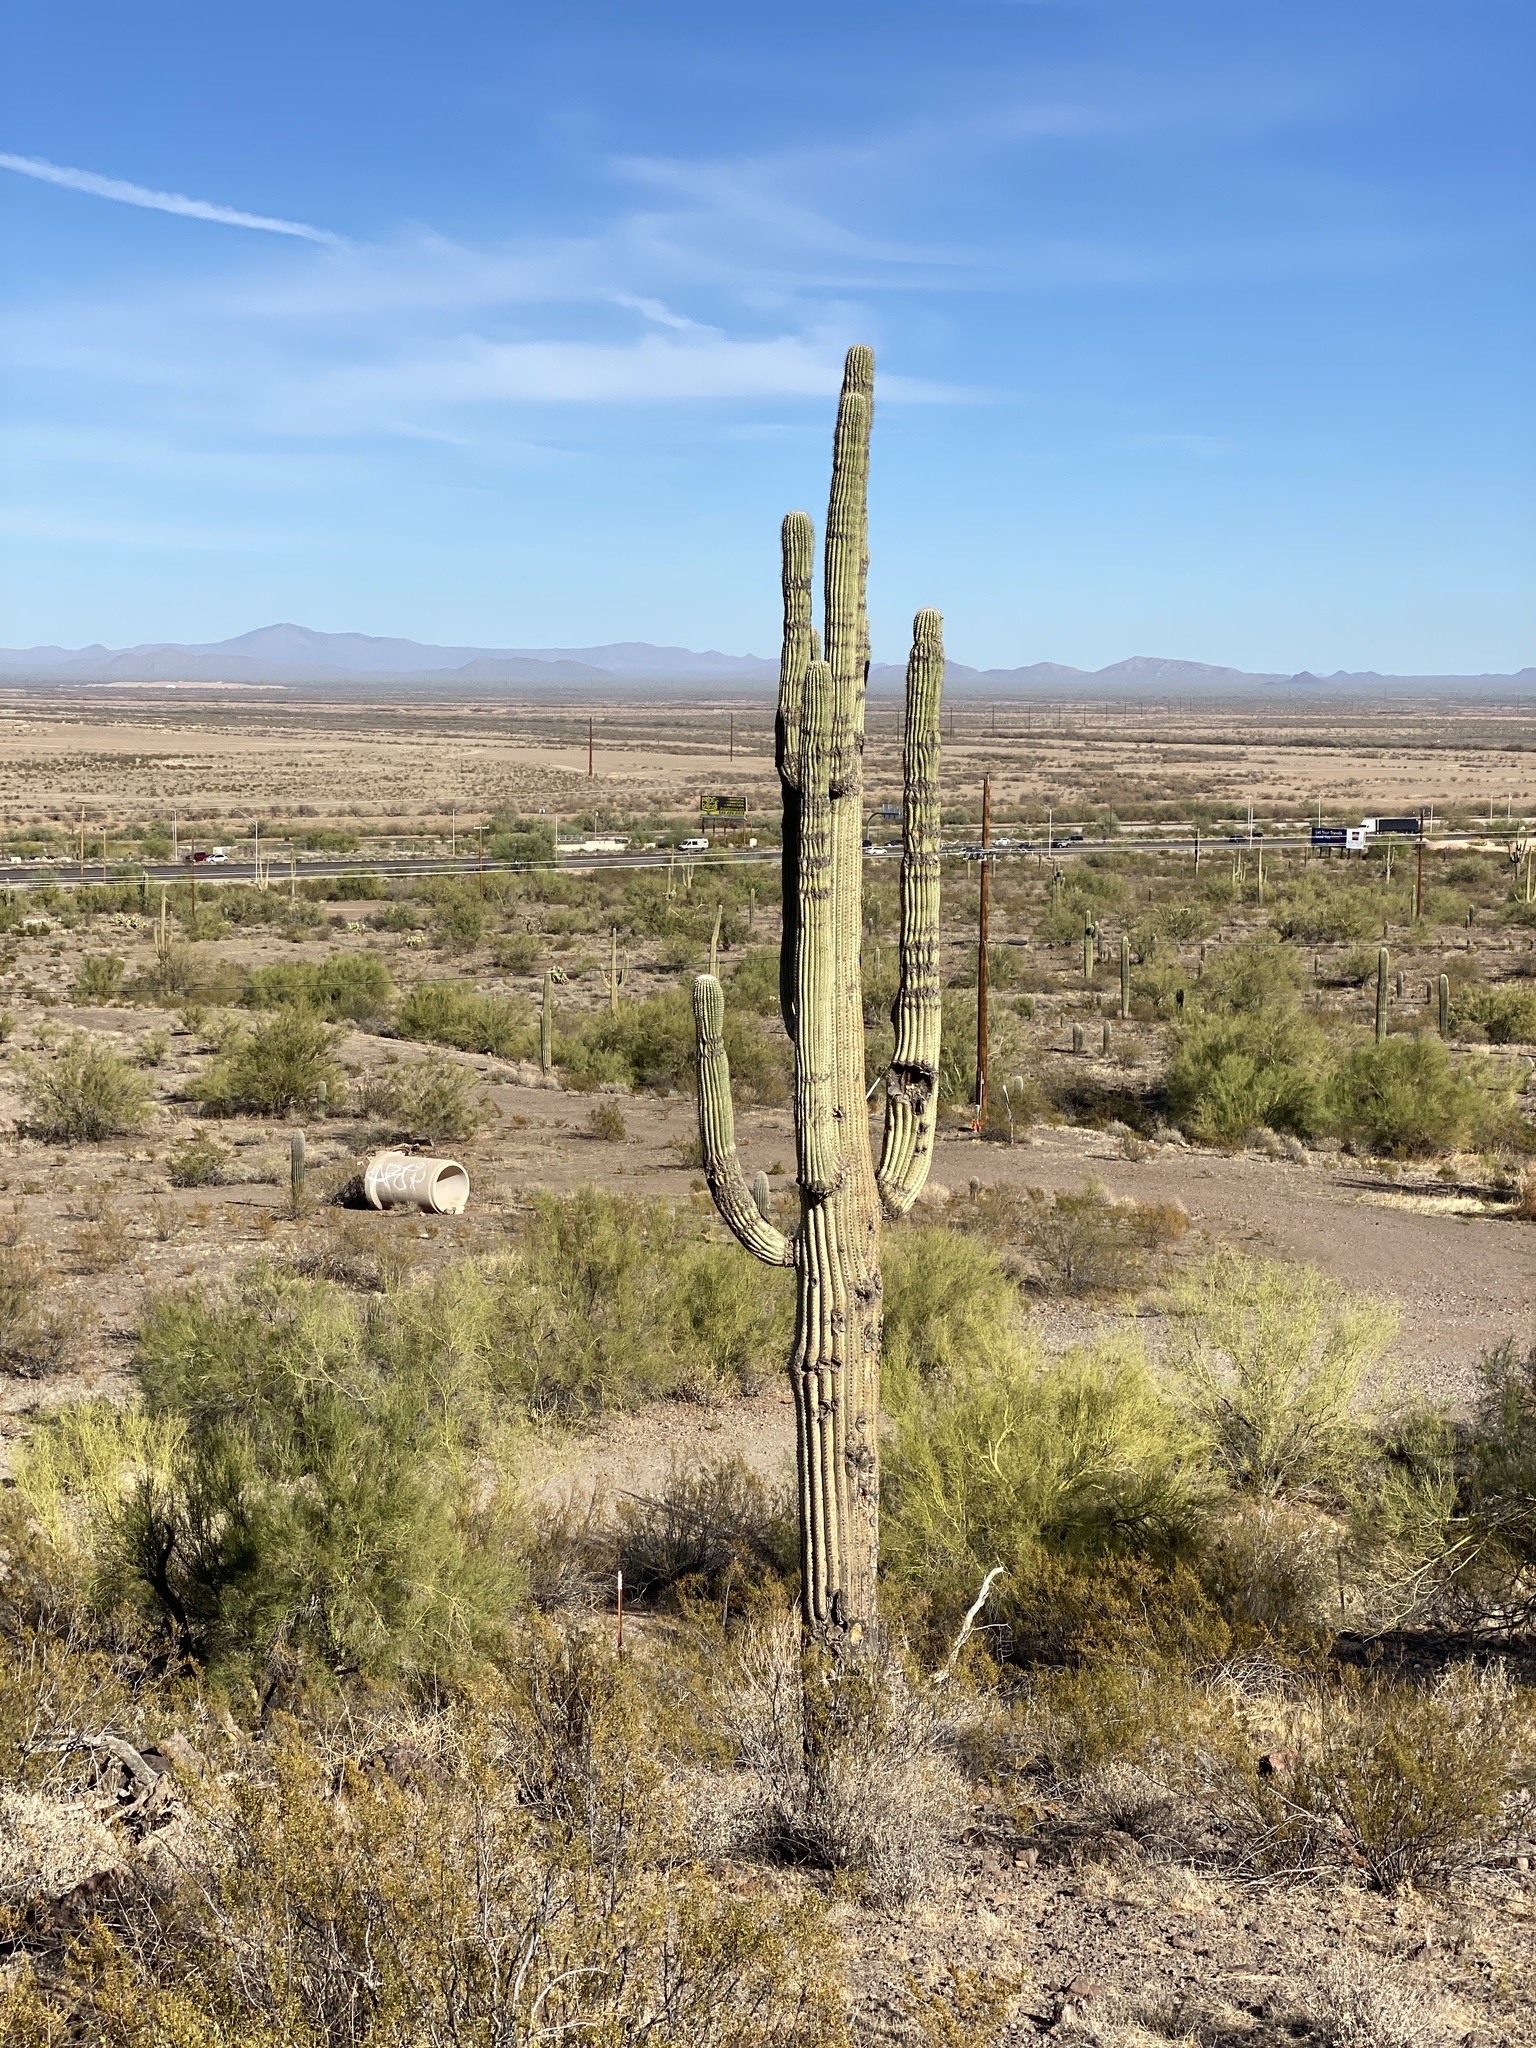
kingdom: Plantae
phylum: Tracheophyta
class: Magnoliopsida
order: Caryophyllales
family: Cactaceae
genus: Carnegiea
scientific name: Carnegiea gigantea
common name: Saguaro
